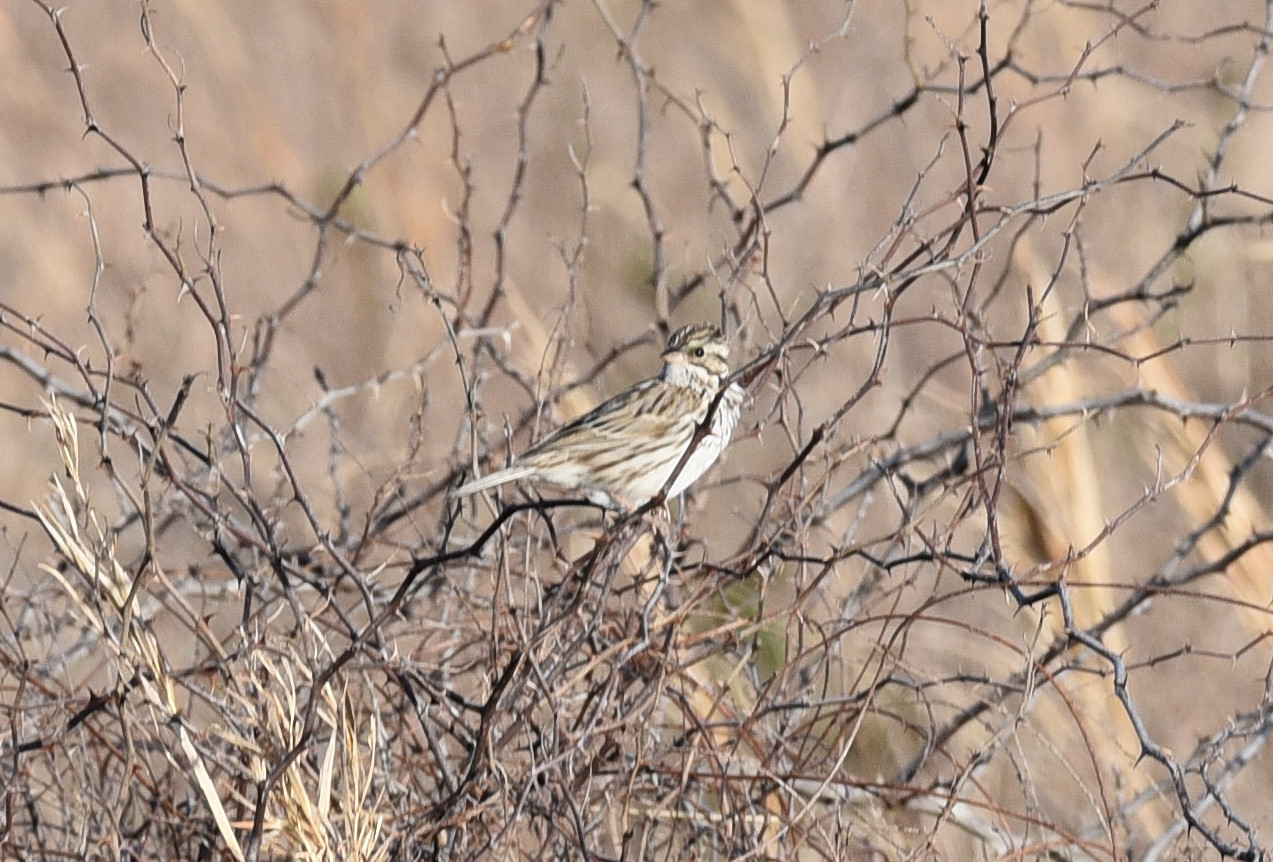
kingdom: Animalia
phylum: Chordata
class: Aves
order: Passeriformes
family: Passerellidae
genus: Passerculus
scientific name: Passerculus sandwichensis
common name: Savannah sparrow
